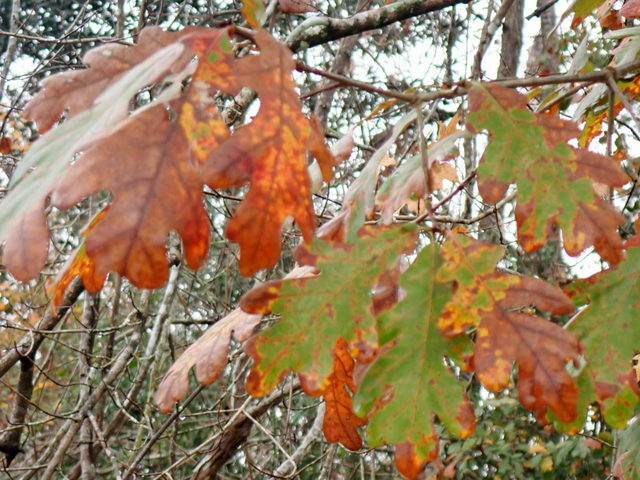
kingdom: Plantae
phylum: Tracheophyta
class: Magnoliopsida
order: Fagales
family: Fagaceae
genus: Quercus
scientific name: Quercus alba
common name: White oak
